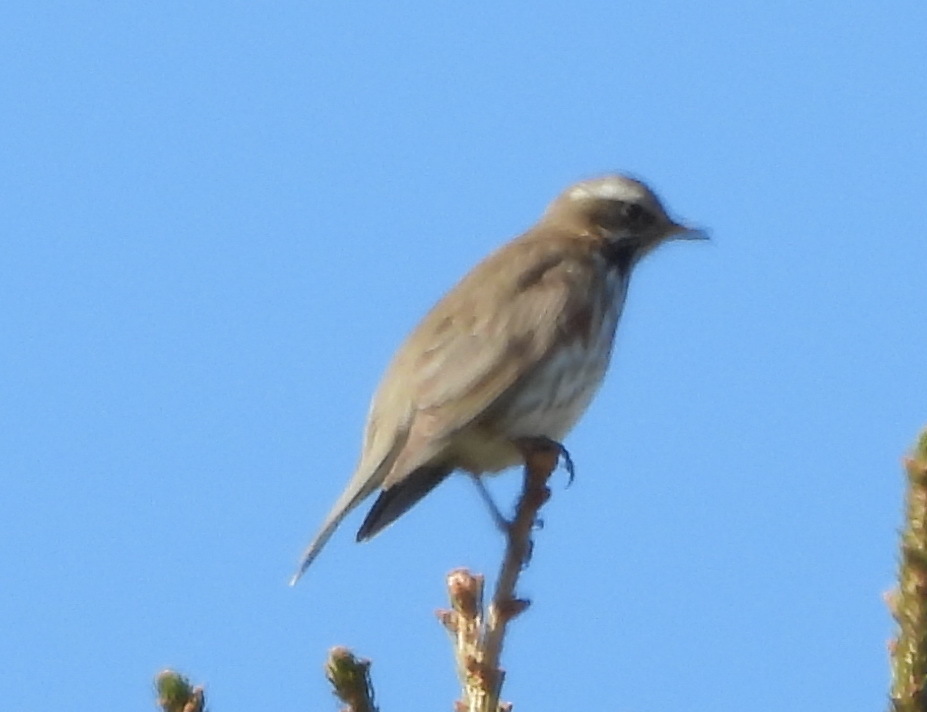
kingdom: Animalia
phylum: Chordata
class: Aves
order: Passeriformes
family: Turdidae
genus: Turdus
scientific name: Turdus iliacus
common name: Redwing
